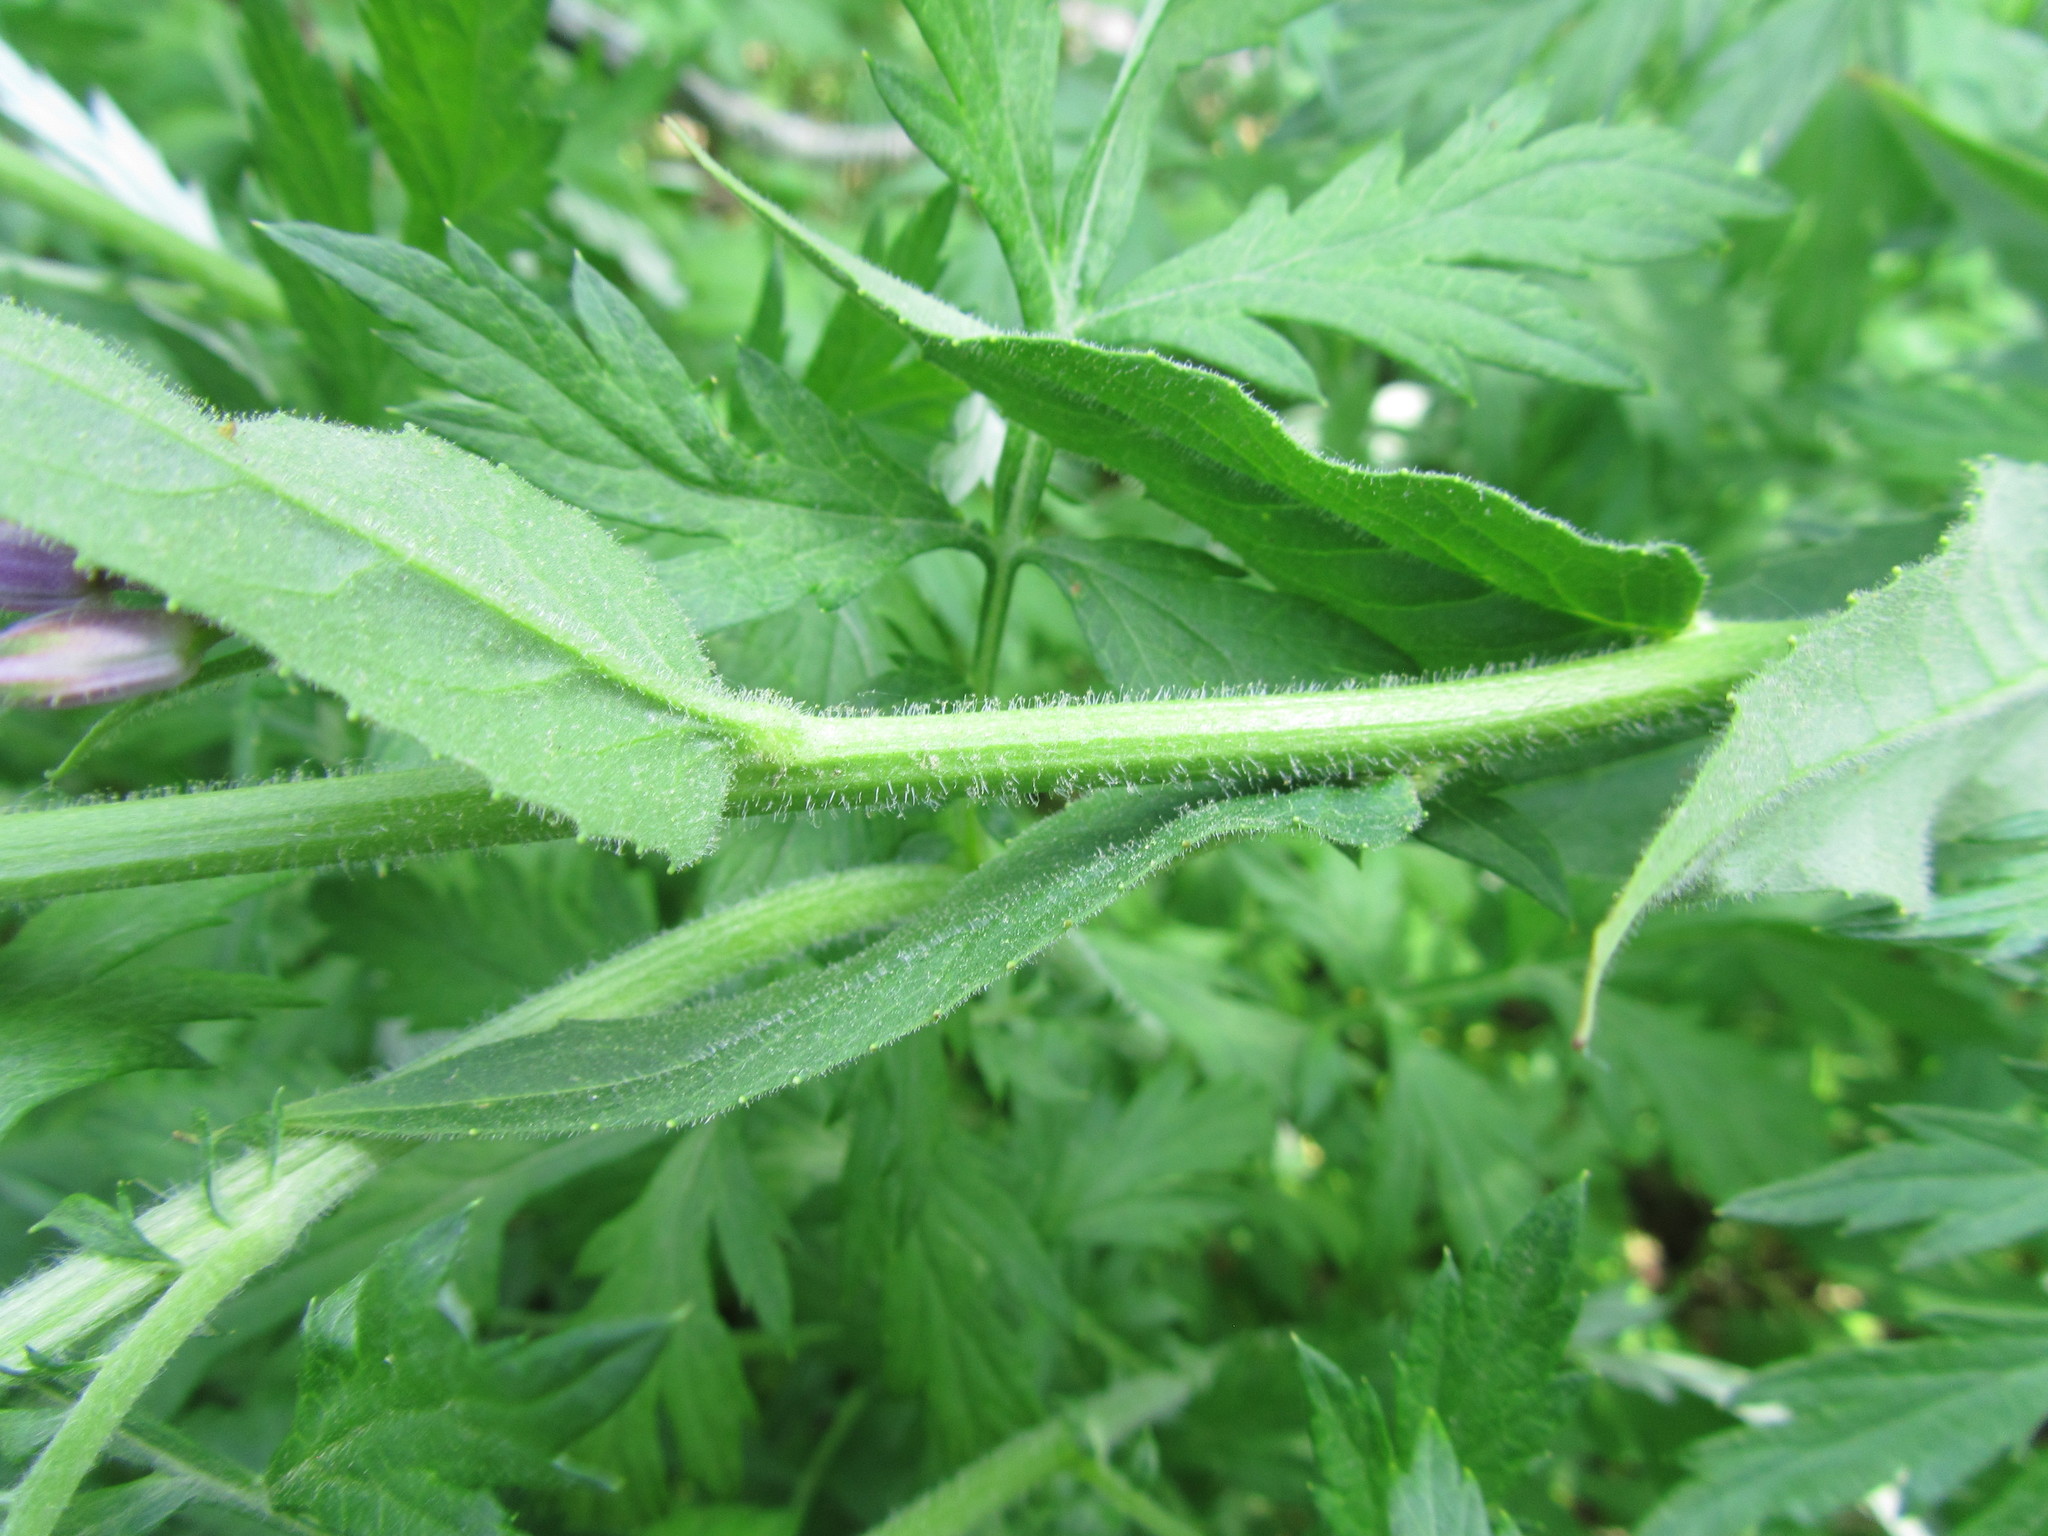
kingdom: Plantae
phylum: Tracheophyta
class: Magnoliopsida
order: Brassicales
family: Brassicaceae
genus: Hesperis
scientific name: Hesperis matronalis
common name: Dame's-violet
